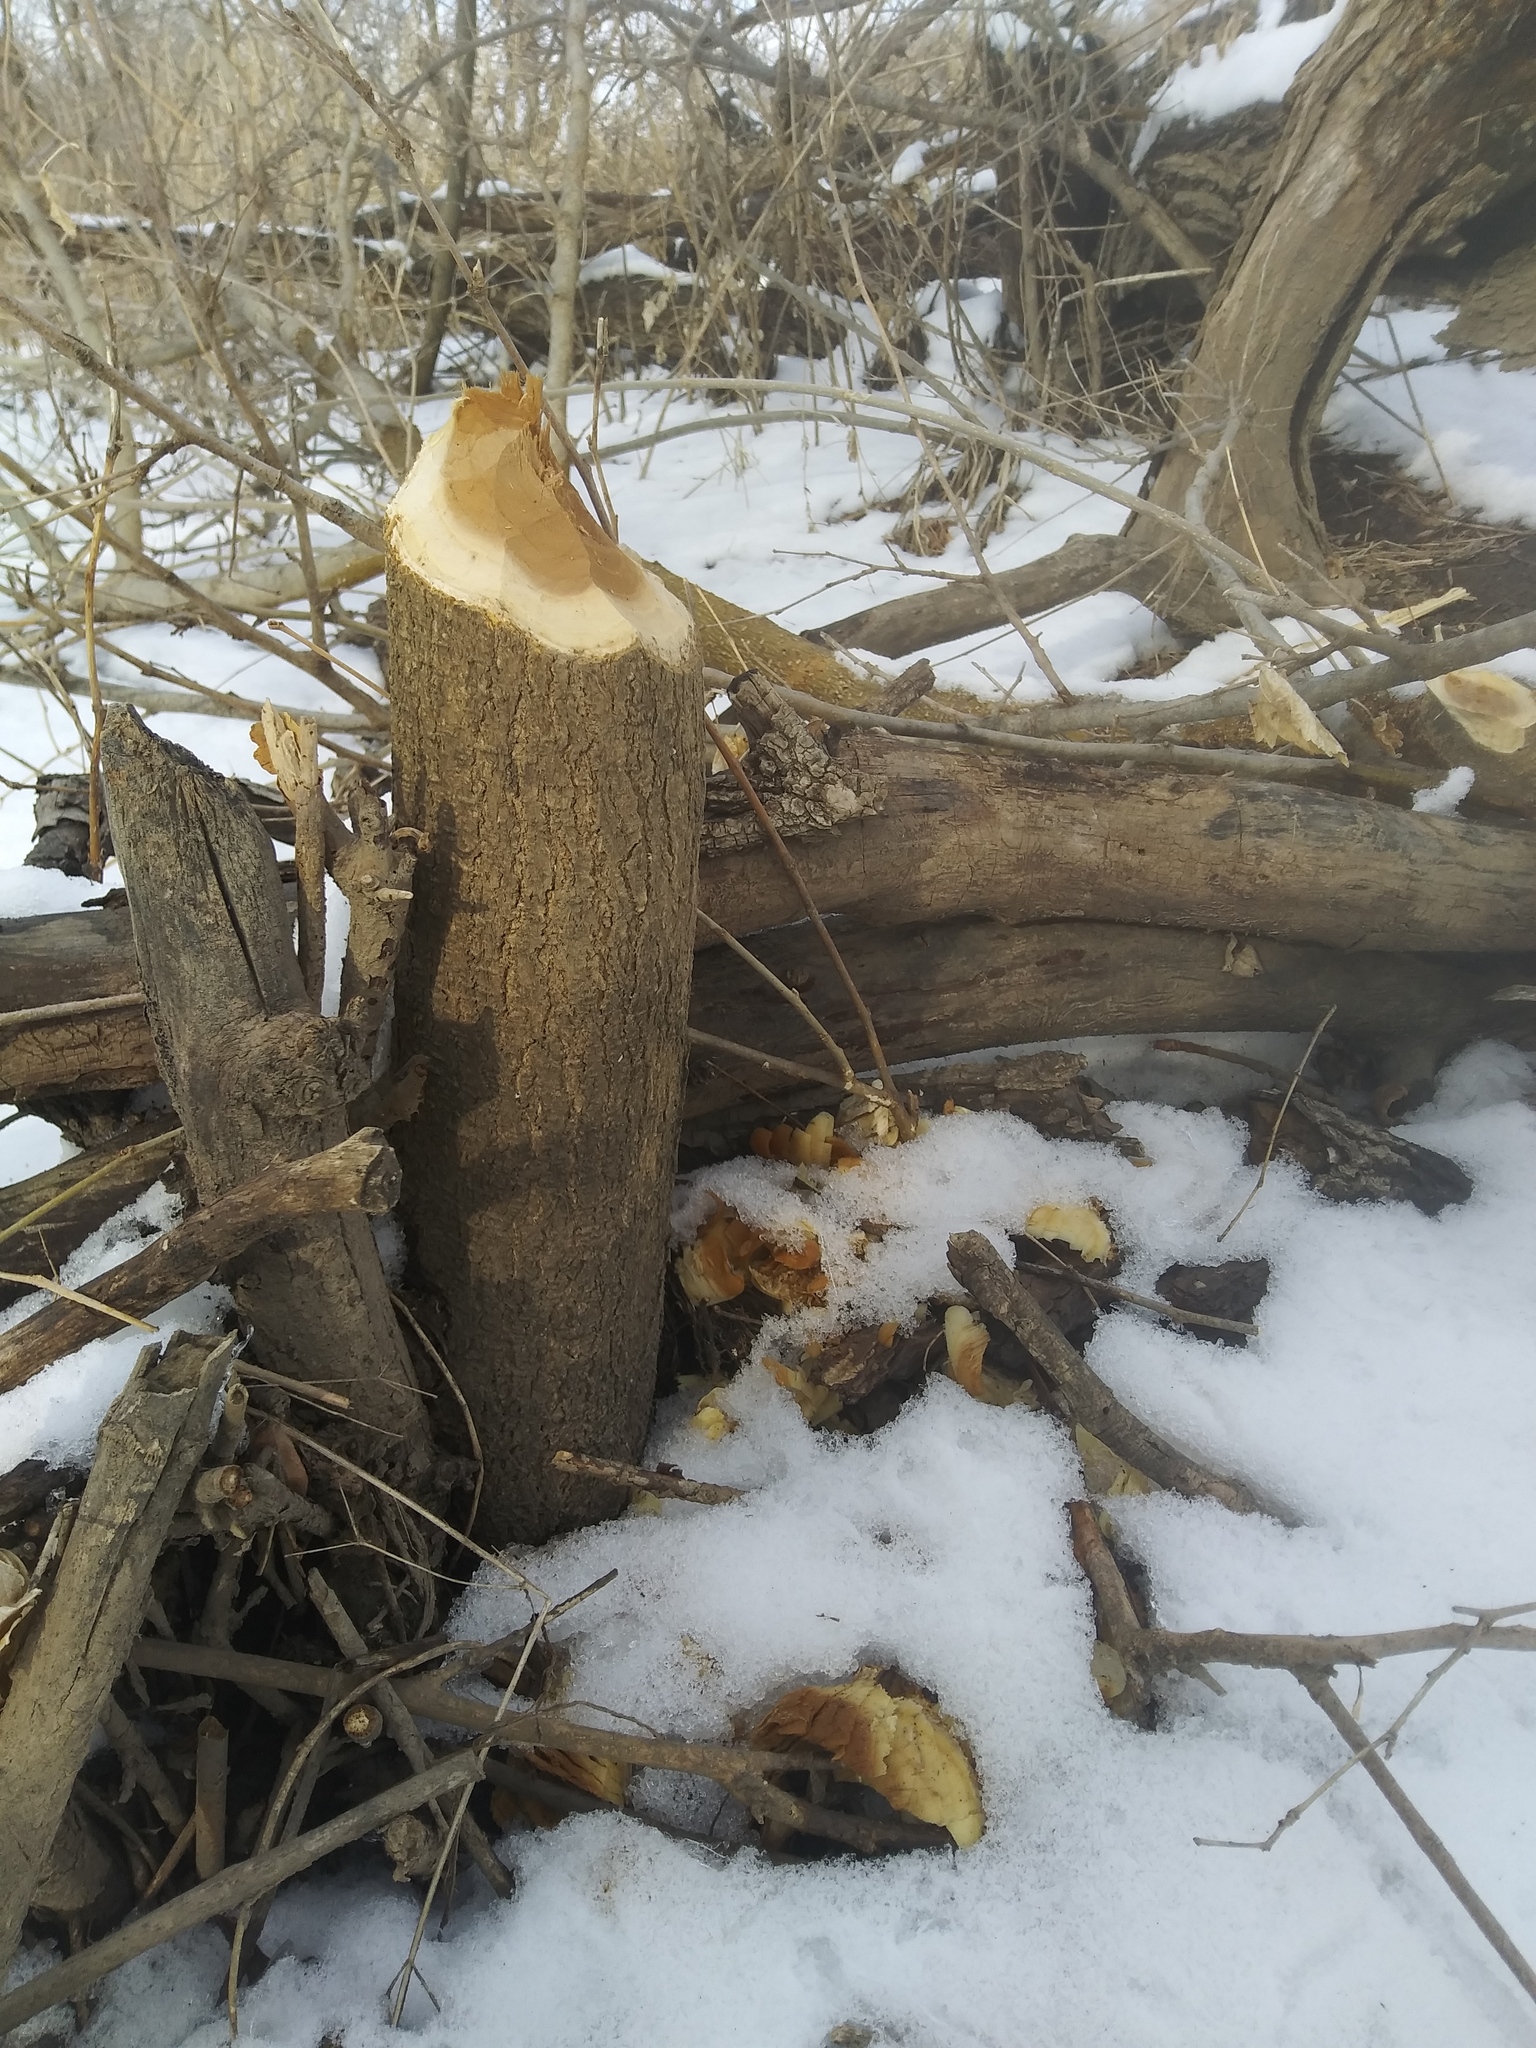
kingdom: Animalia
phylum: Chordata
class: Mammalia
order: Rodentia
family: Castoridae
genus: Castor
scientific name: Castor canadensis
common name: American beaver
